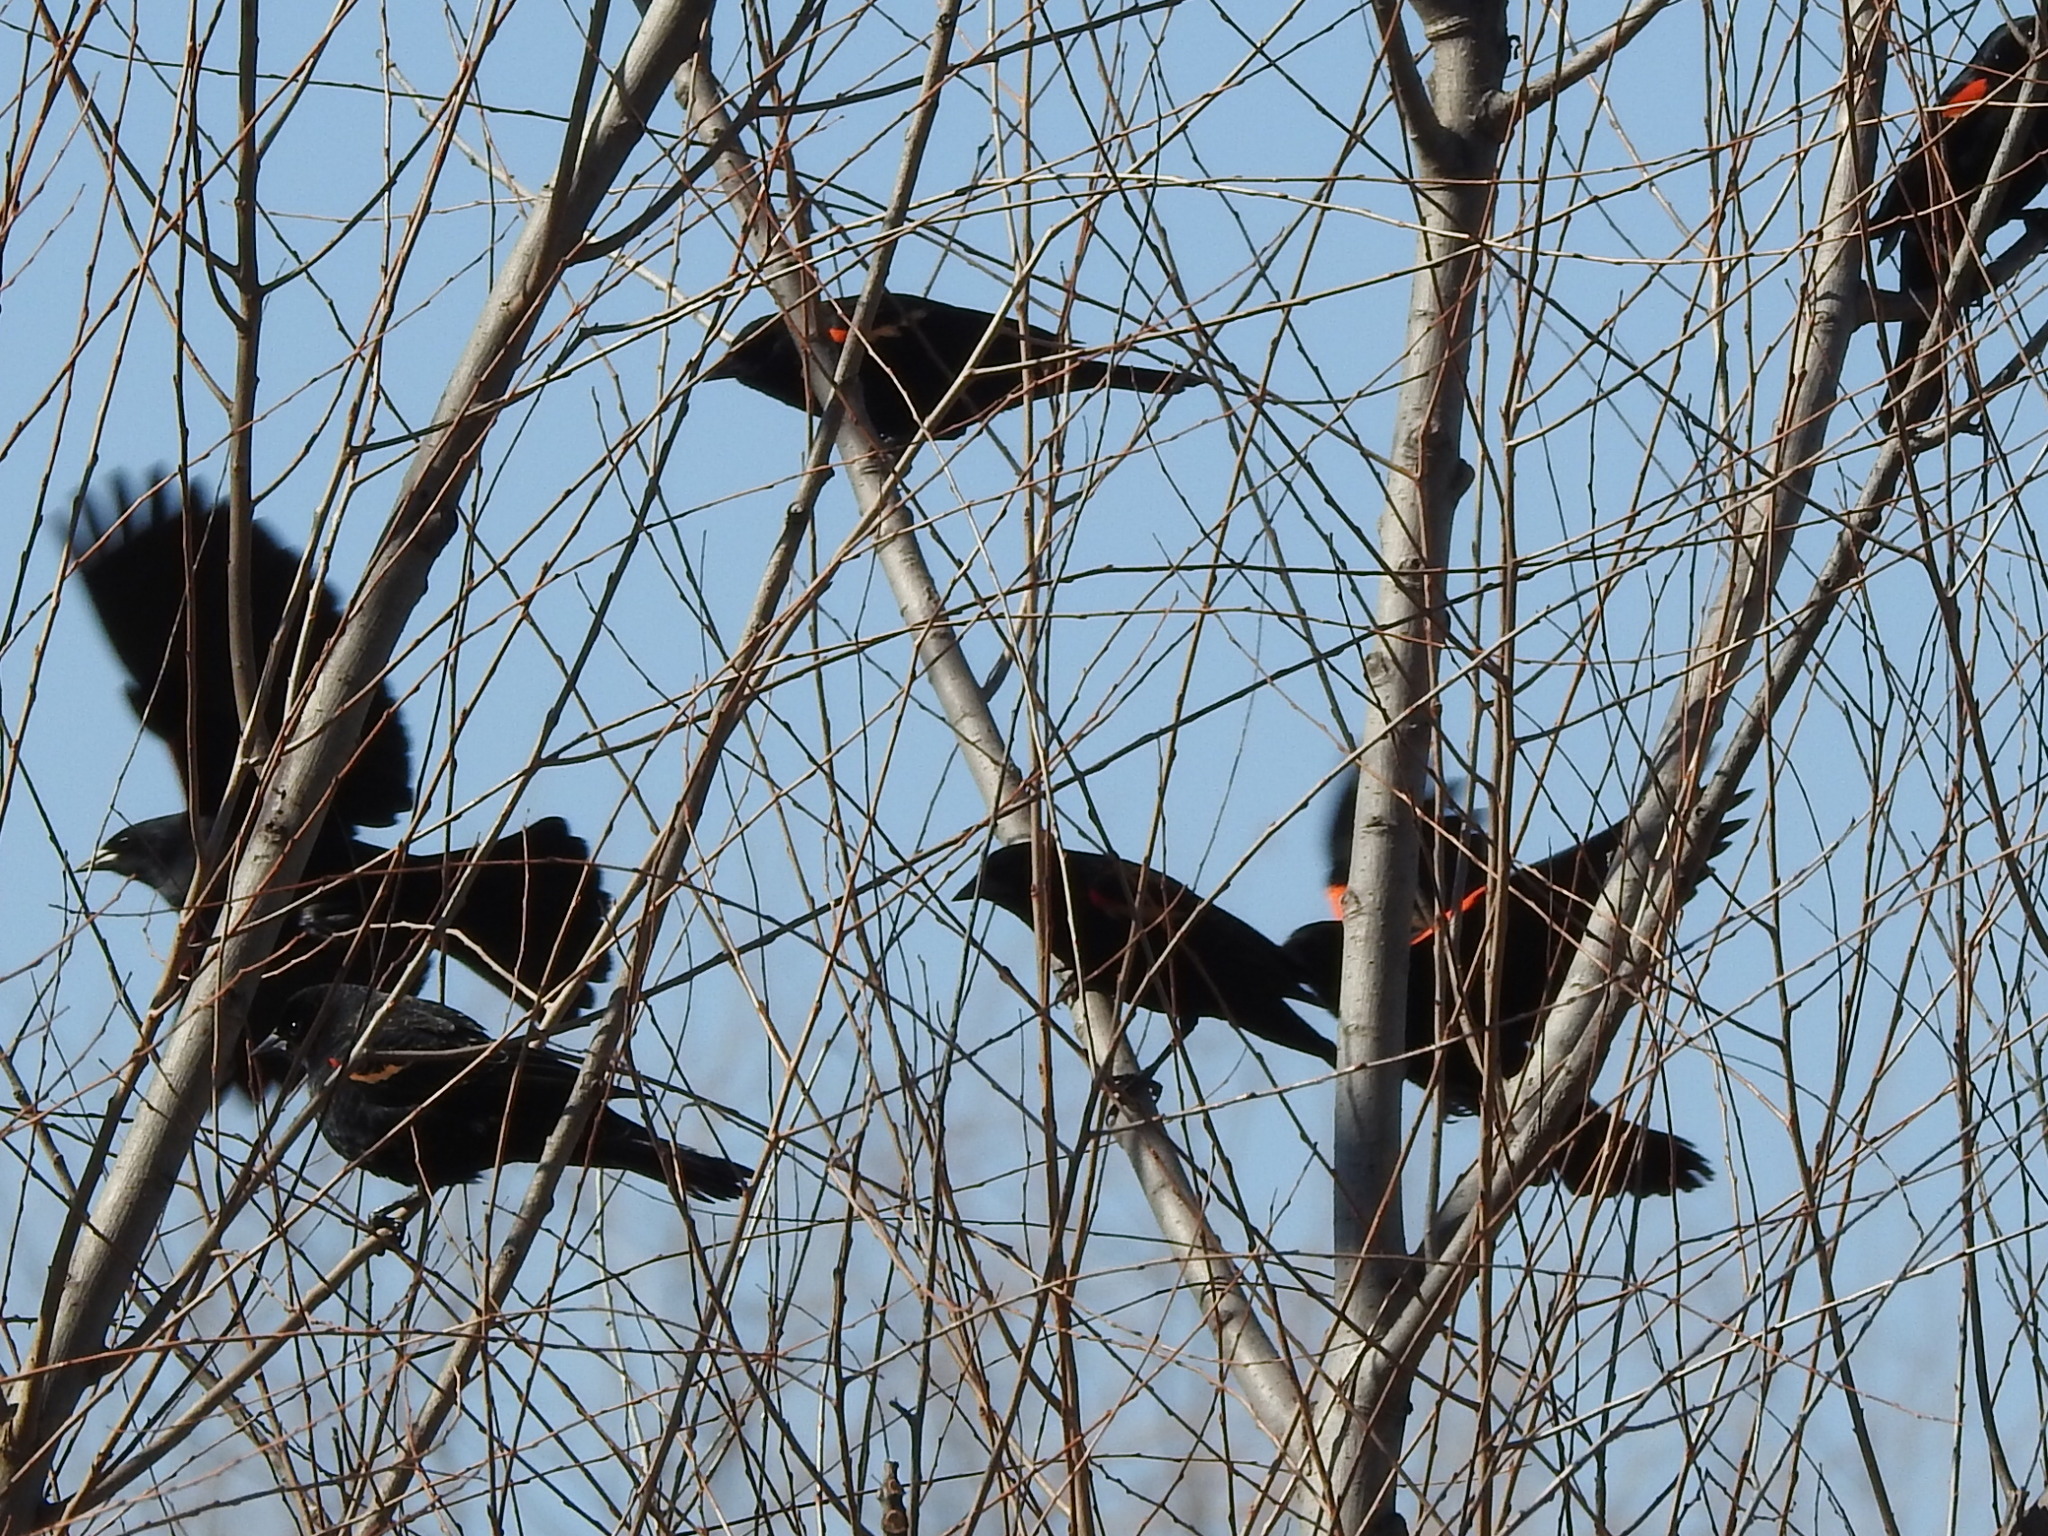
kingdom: Animalia
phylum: Chordata
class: Aves
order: Passeriformes
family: Icteridae
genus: Agelaius
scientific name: Agelaius phoeniceus
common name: Red-winged blackbird
